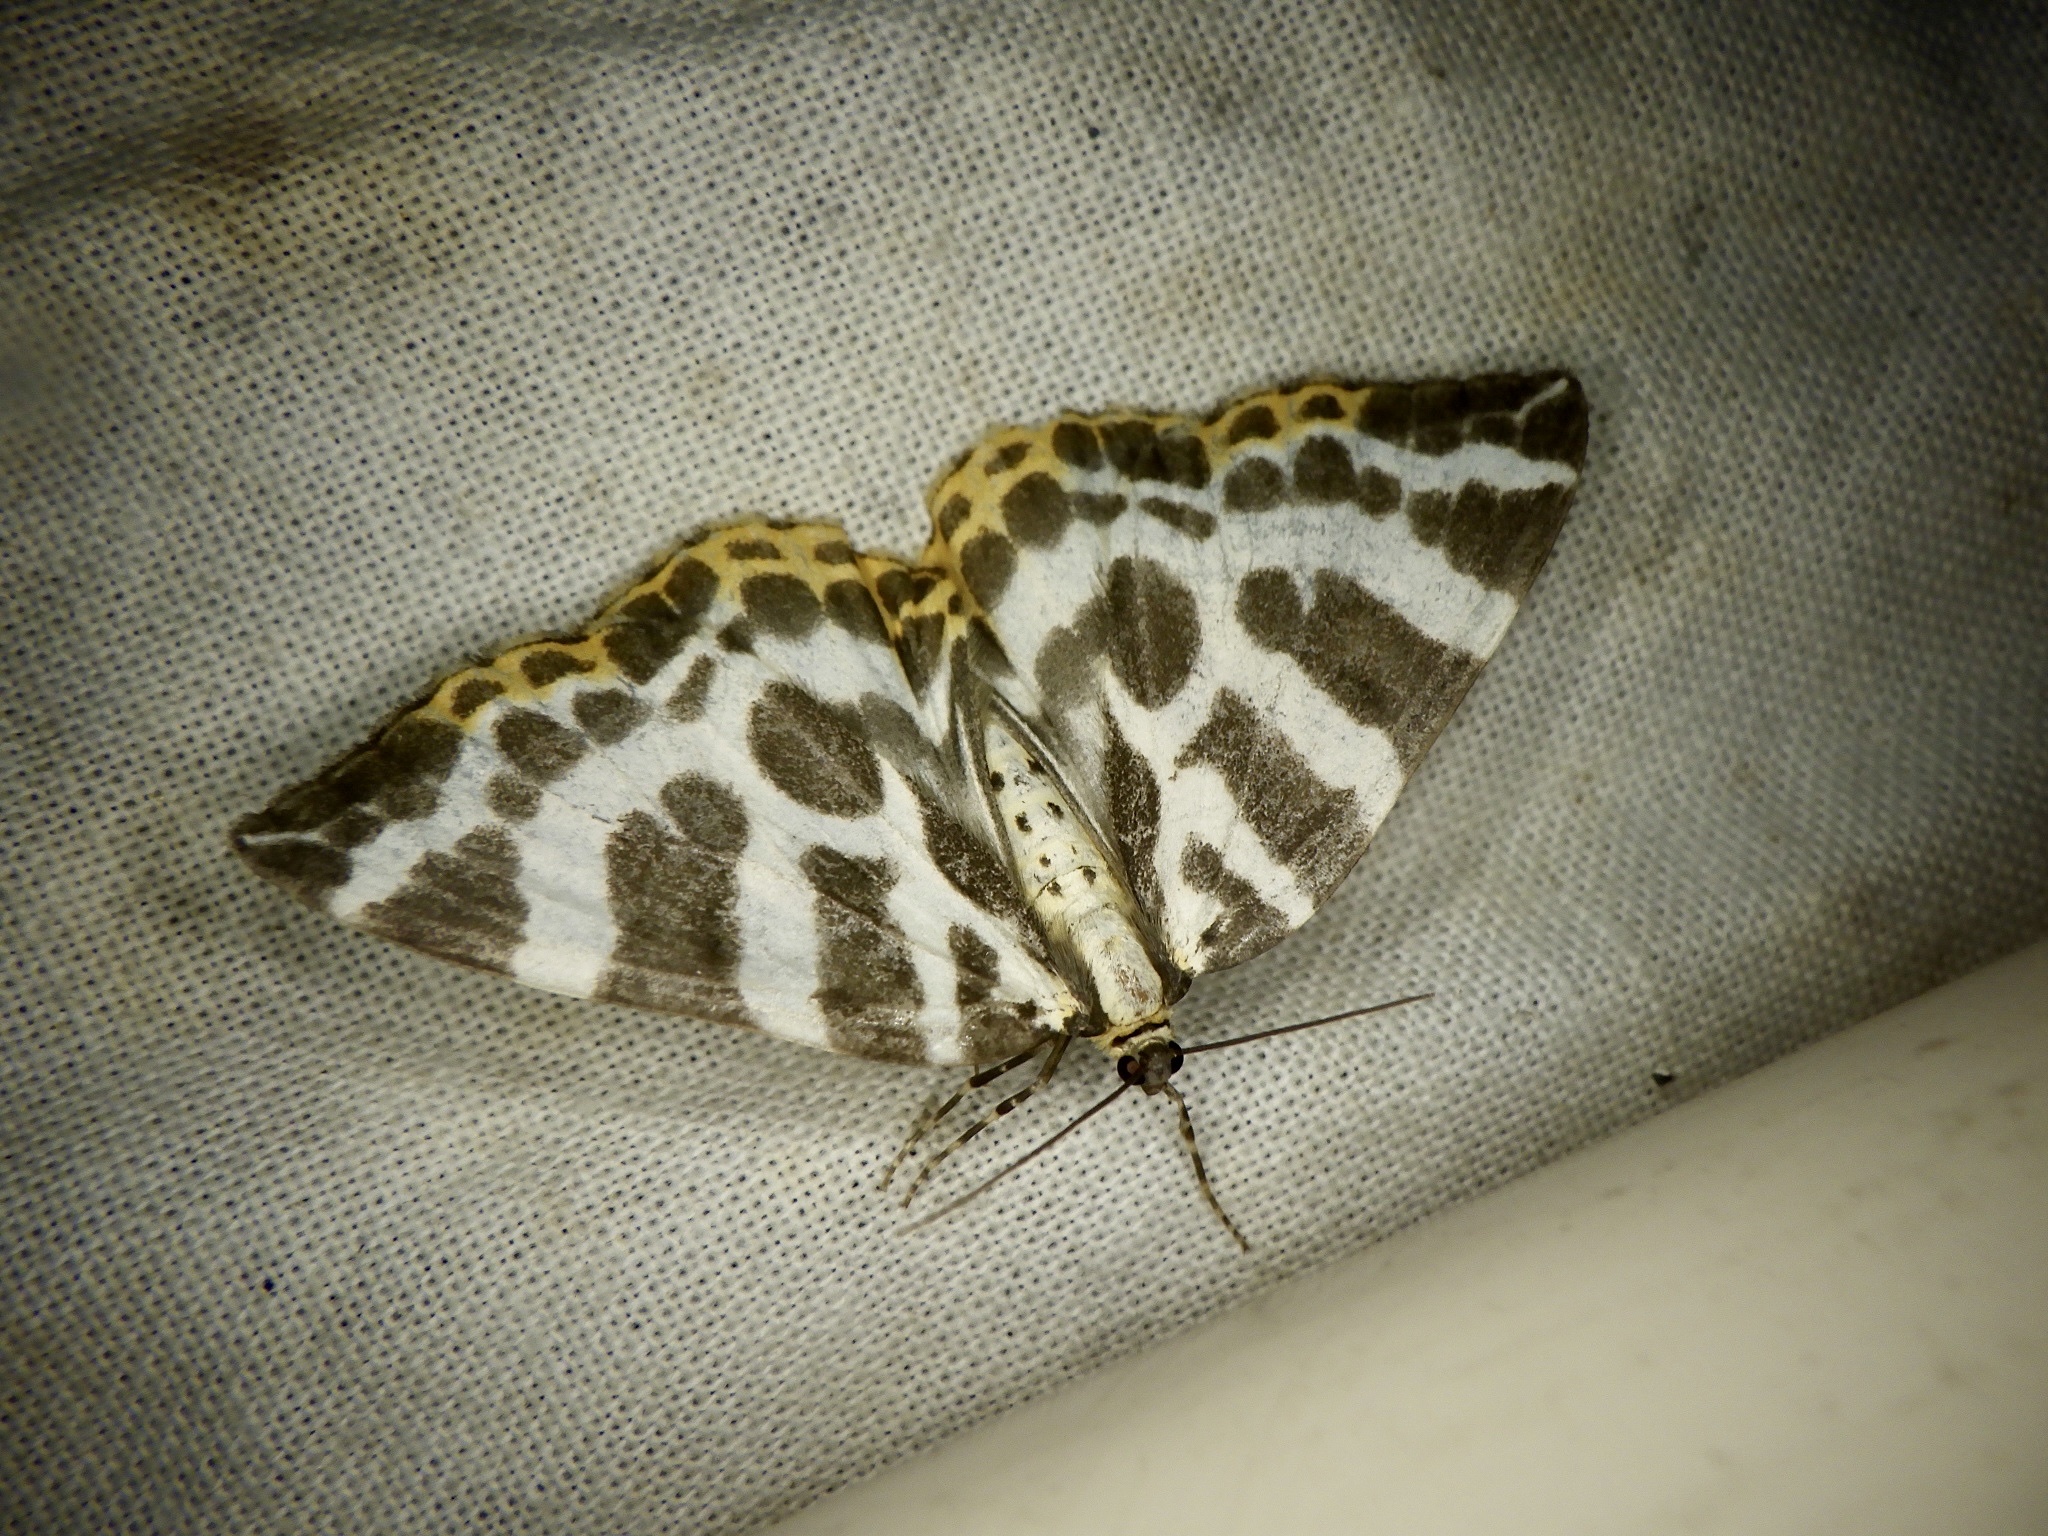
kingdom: Animalia
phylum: Arthropoda
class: Insecta
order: Lepidoptera
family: Geometridae
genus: Calleulype
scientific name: Calleulype whitelyi
